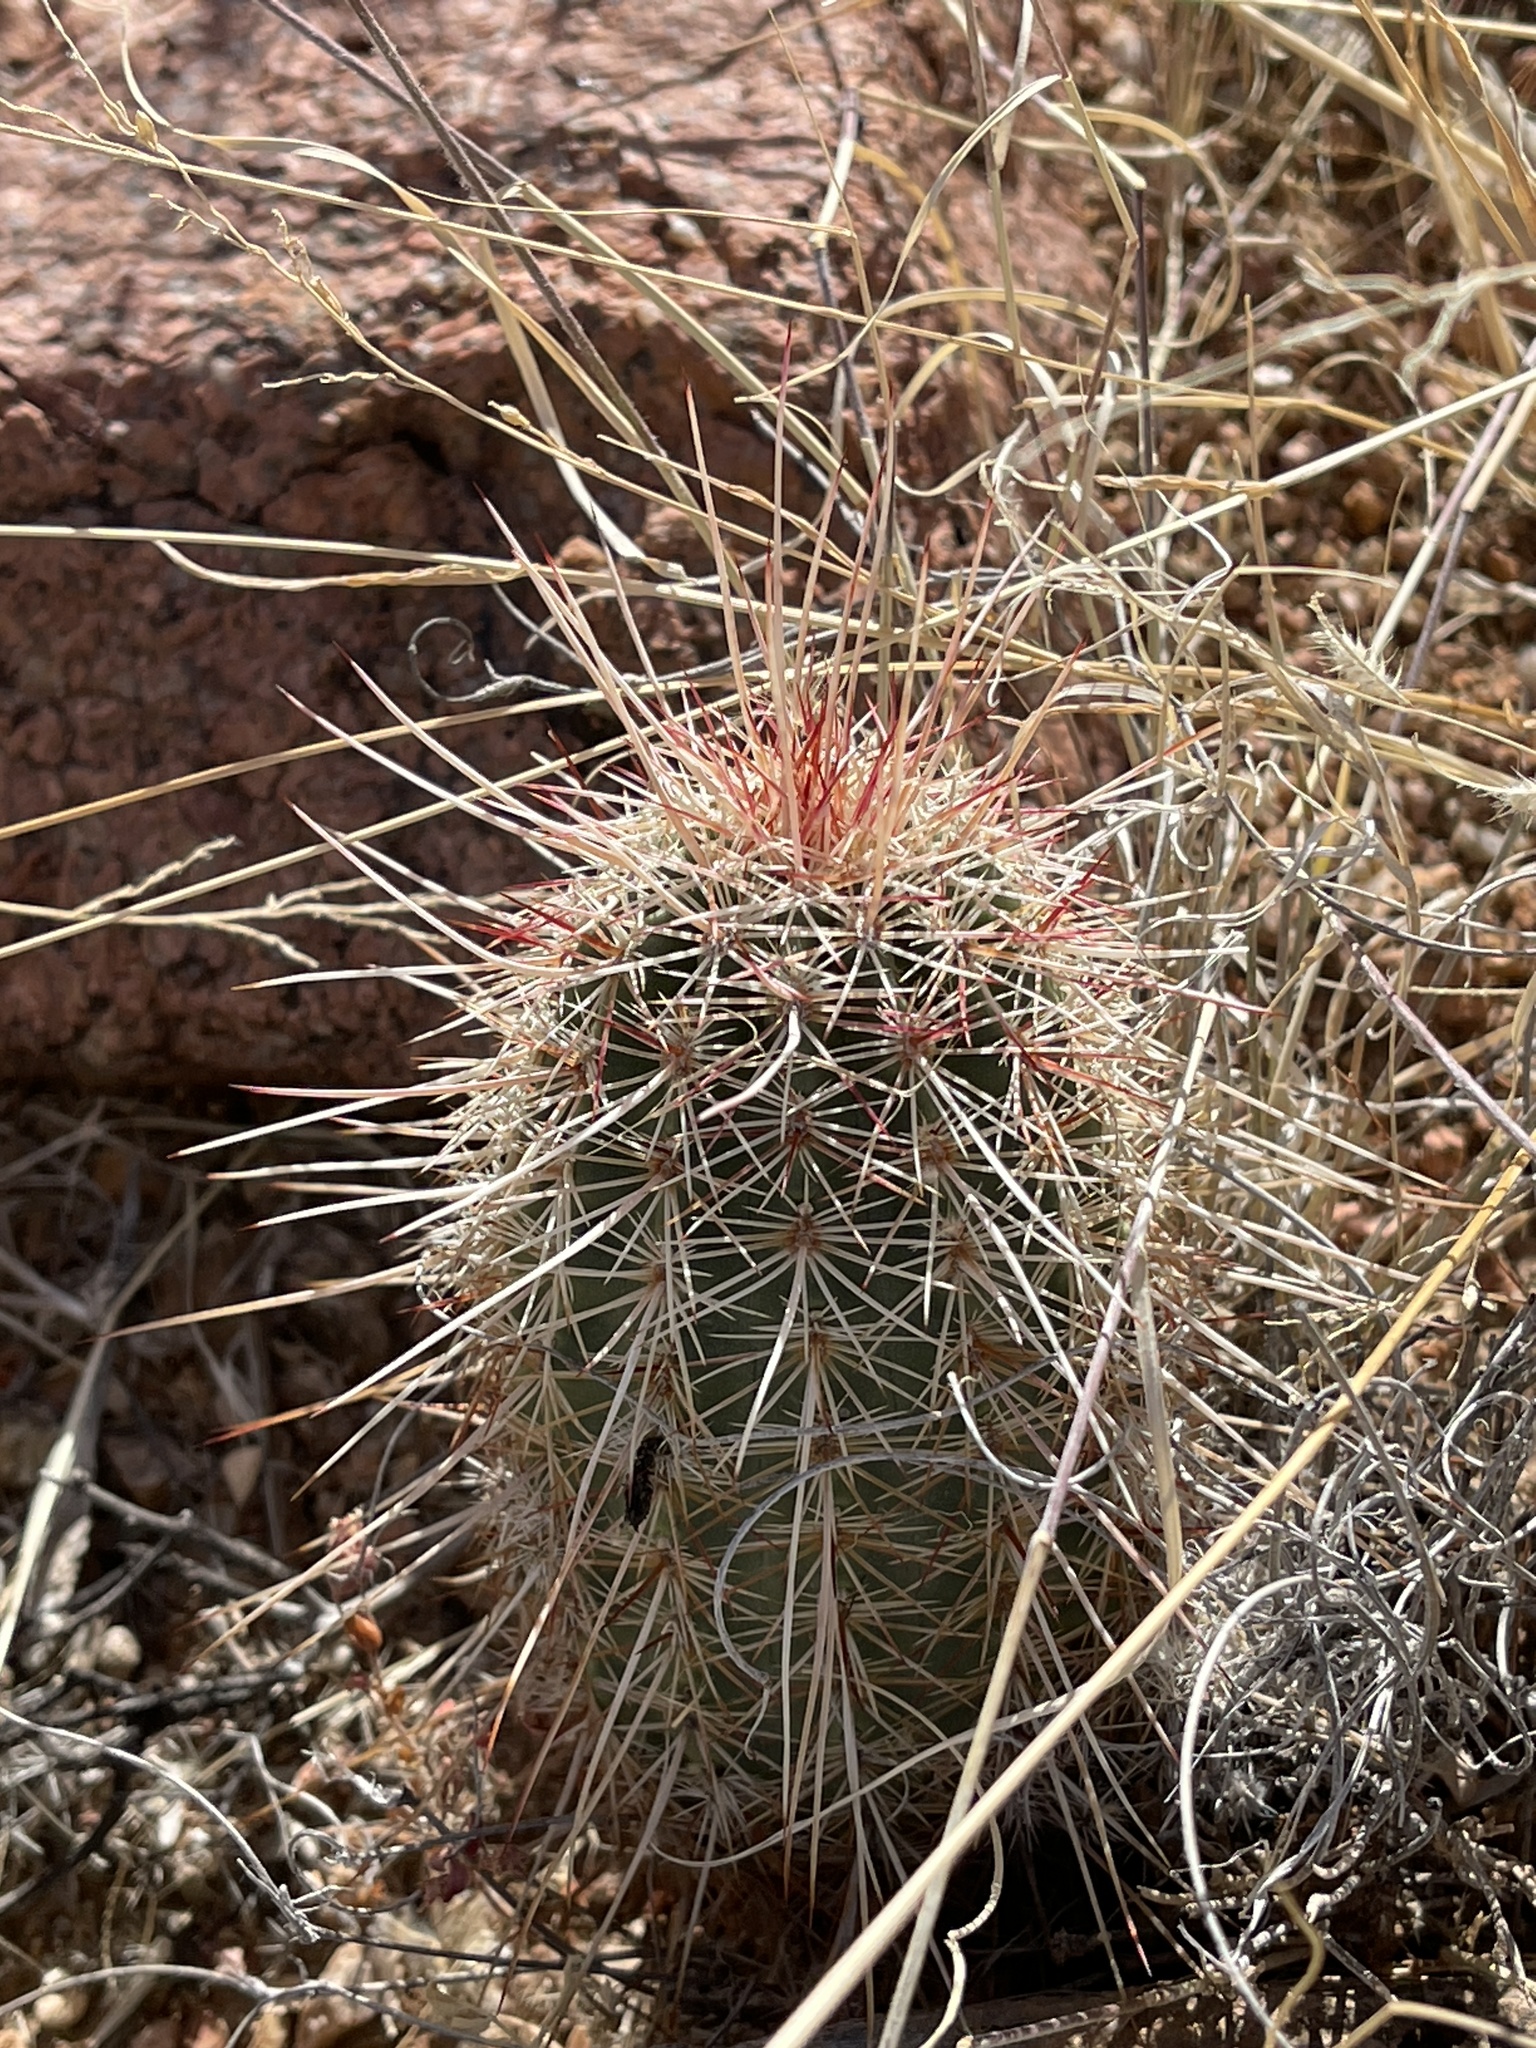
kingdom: Plantae
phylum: Tracheophyta
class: Magnoliopsida
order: Caryophyllales
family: Cactaceae
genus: Echinocereus
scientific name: Echinocereus viridiflorus
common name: Nylon hedgehog cactus
